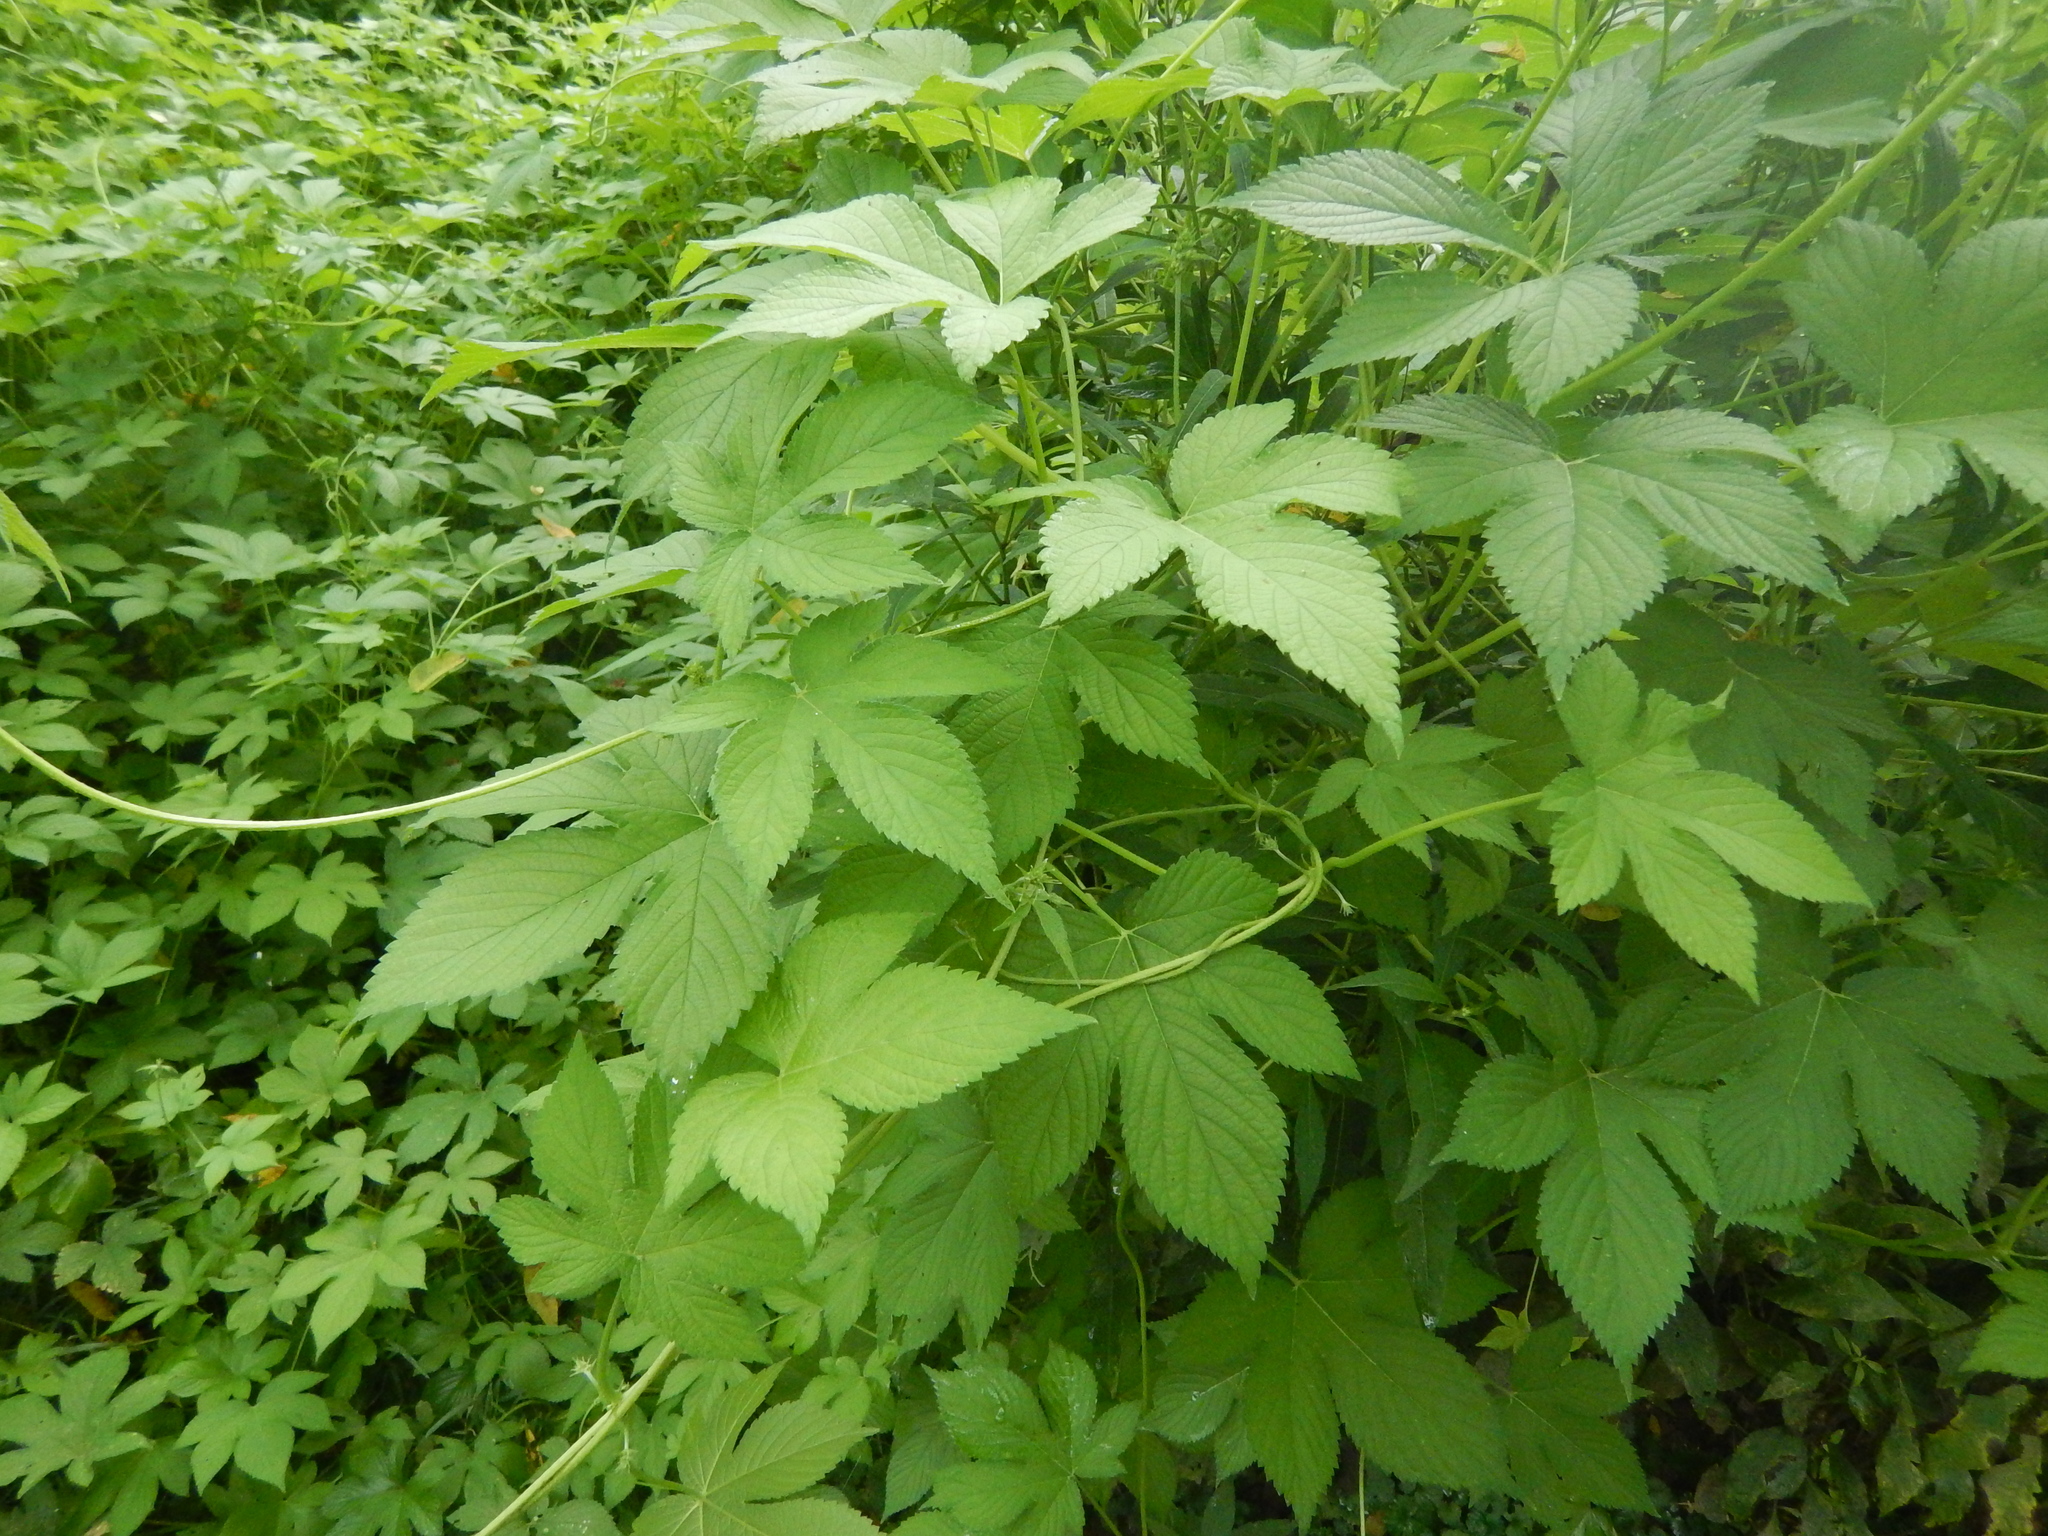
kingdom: Plantae
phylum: Tracheophyta
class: Magnoliopsida
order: Rosales
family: Cannabaceae
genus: Humulus
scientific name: Humulus scandens
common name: Japanese hop
